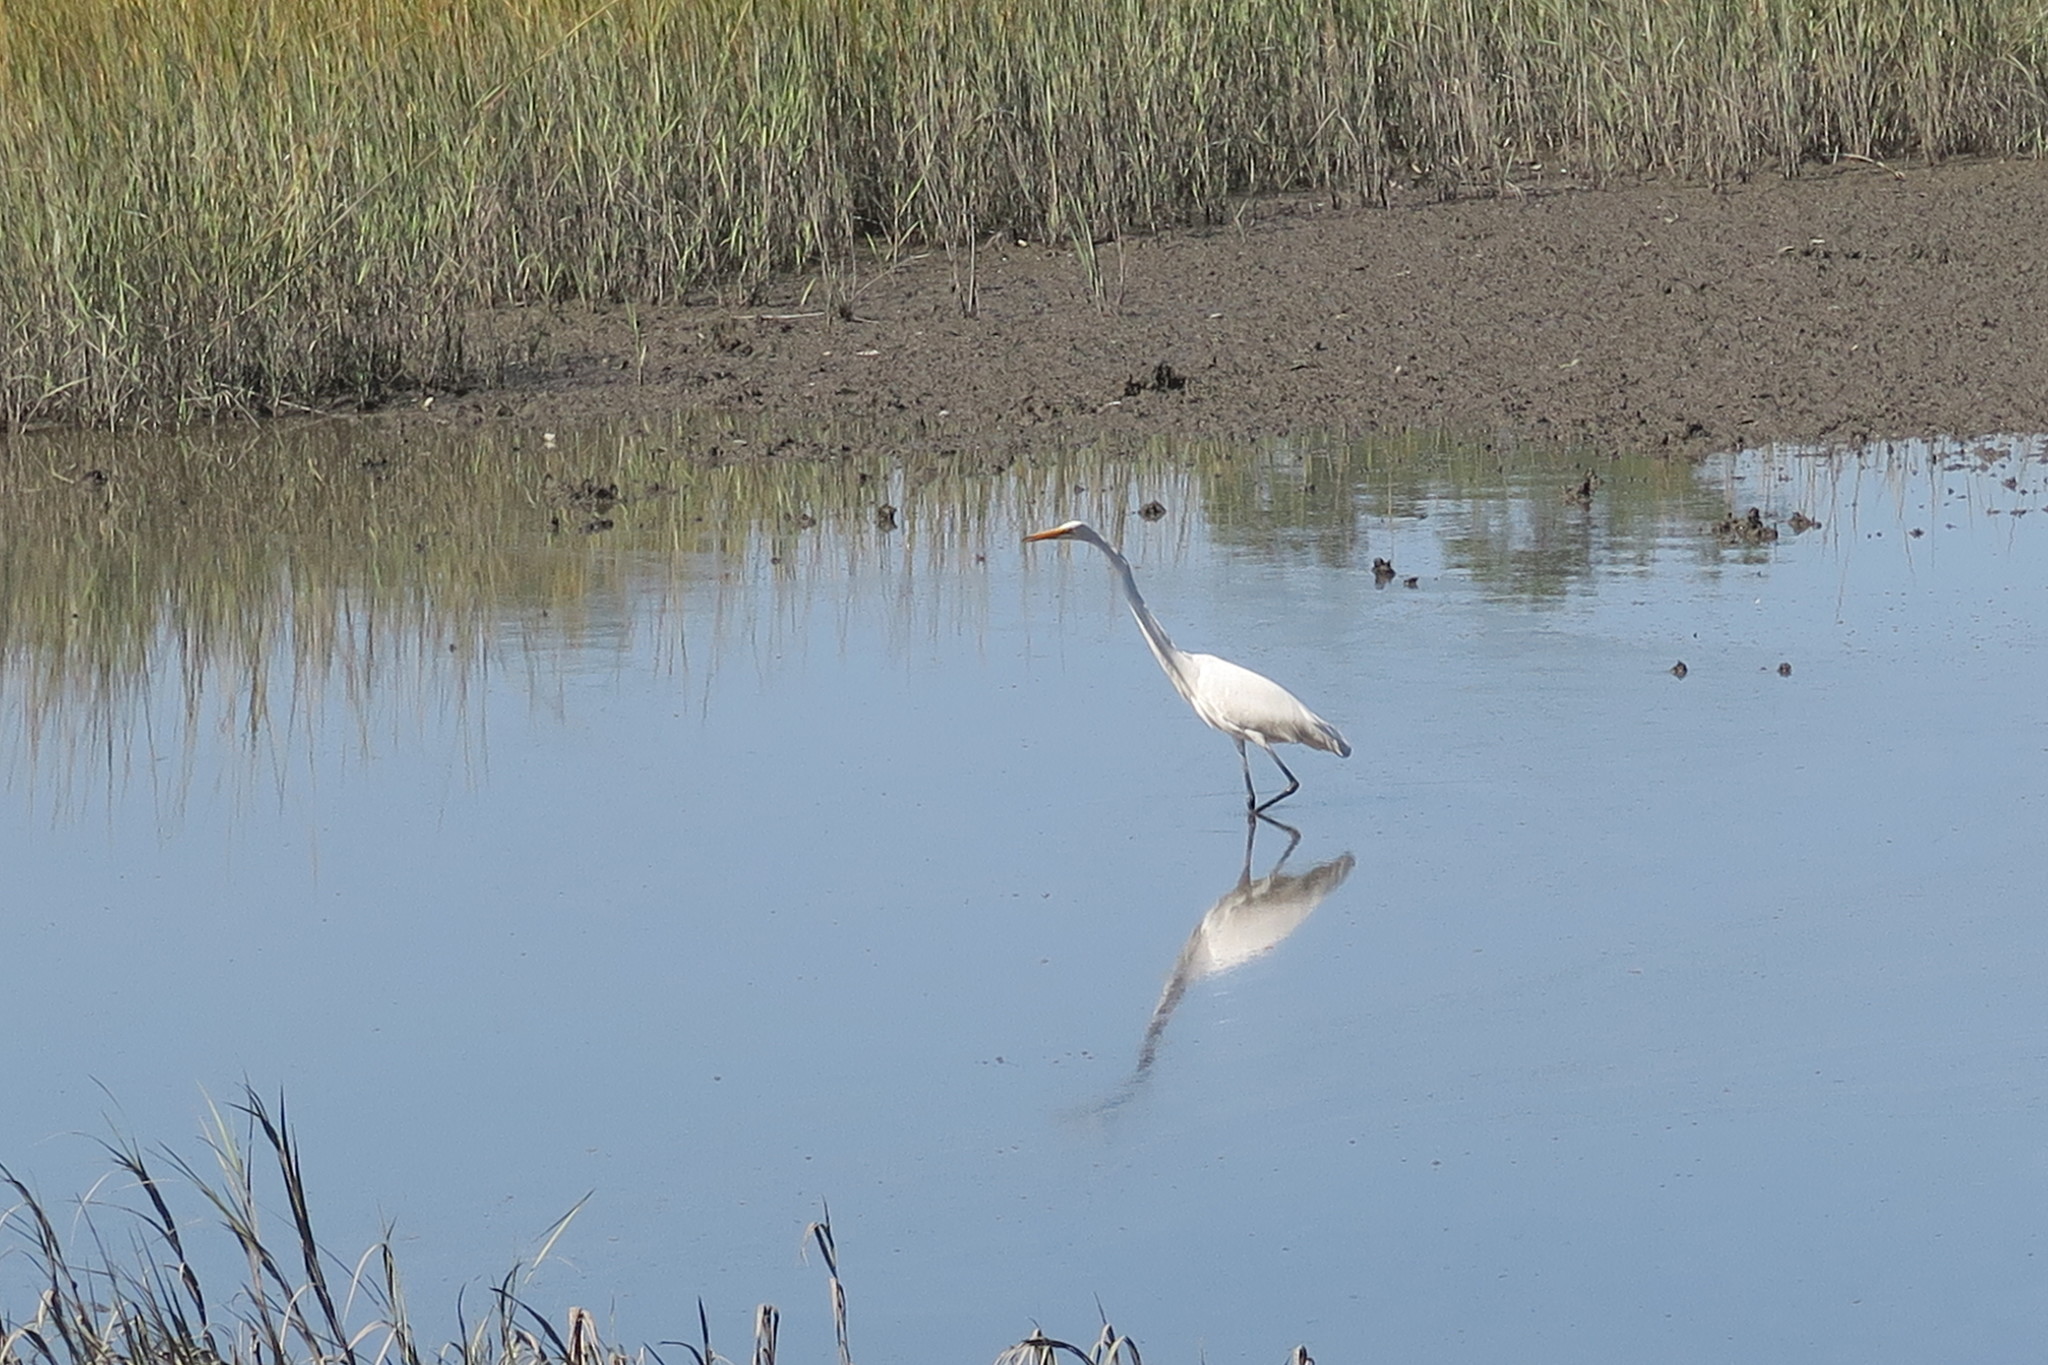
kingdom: Animalia
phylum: Chordata
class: Aves
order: Pelecaniformes
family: Ardeidae
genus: Ardea
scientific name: Ardea alba
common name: Great egret
